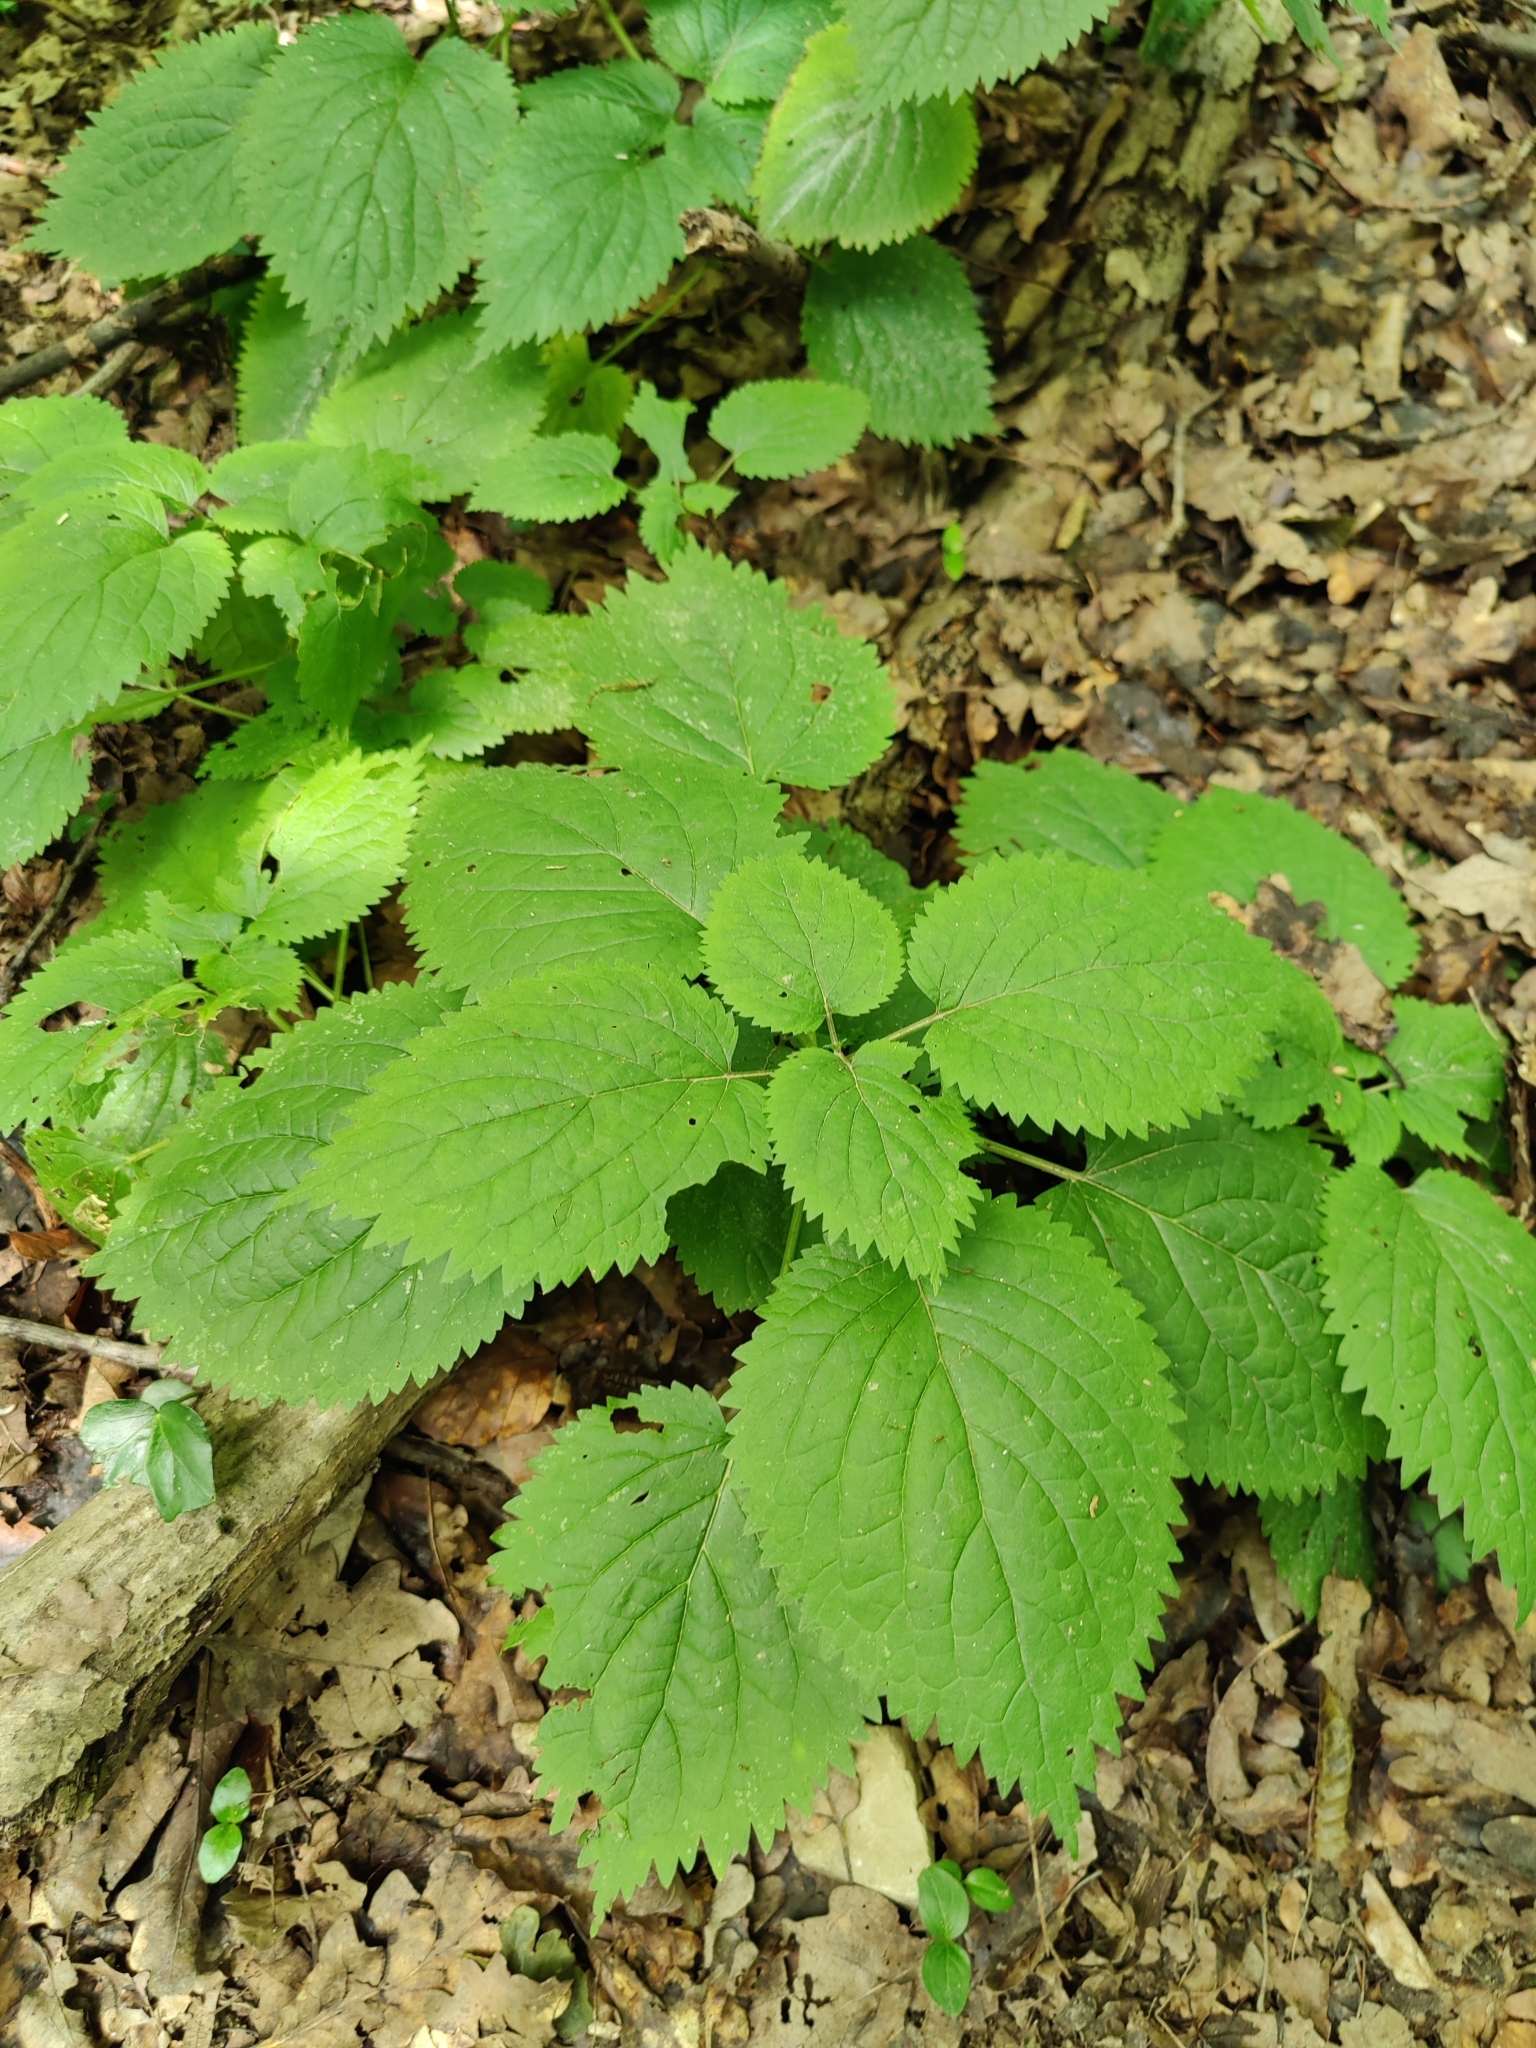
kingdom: Plantae
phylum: Tracheophyta
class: Magnoliopsida
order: Lamiales
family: Lamiaceae
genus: Lamium
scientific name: Lamium orvala
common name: Balm-leaved archangel
